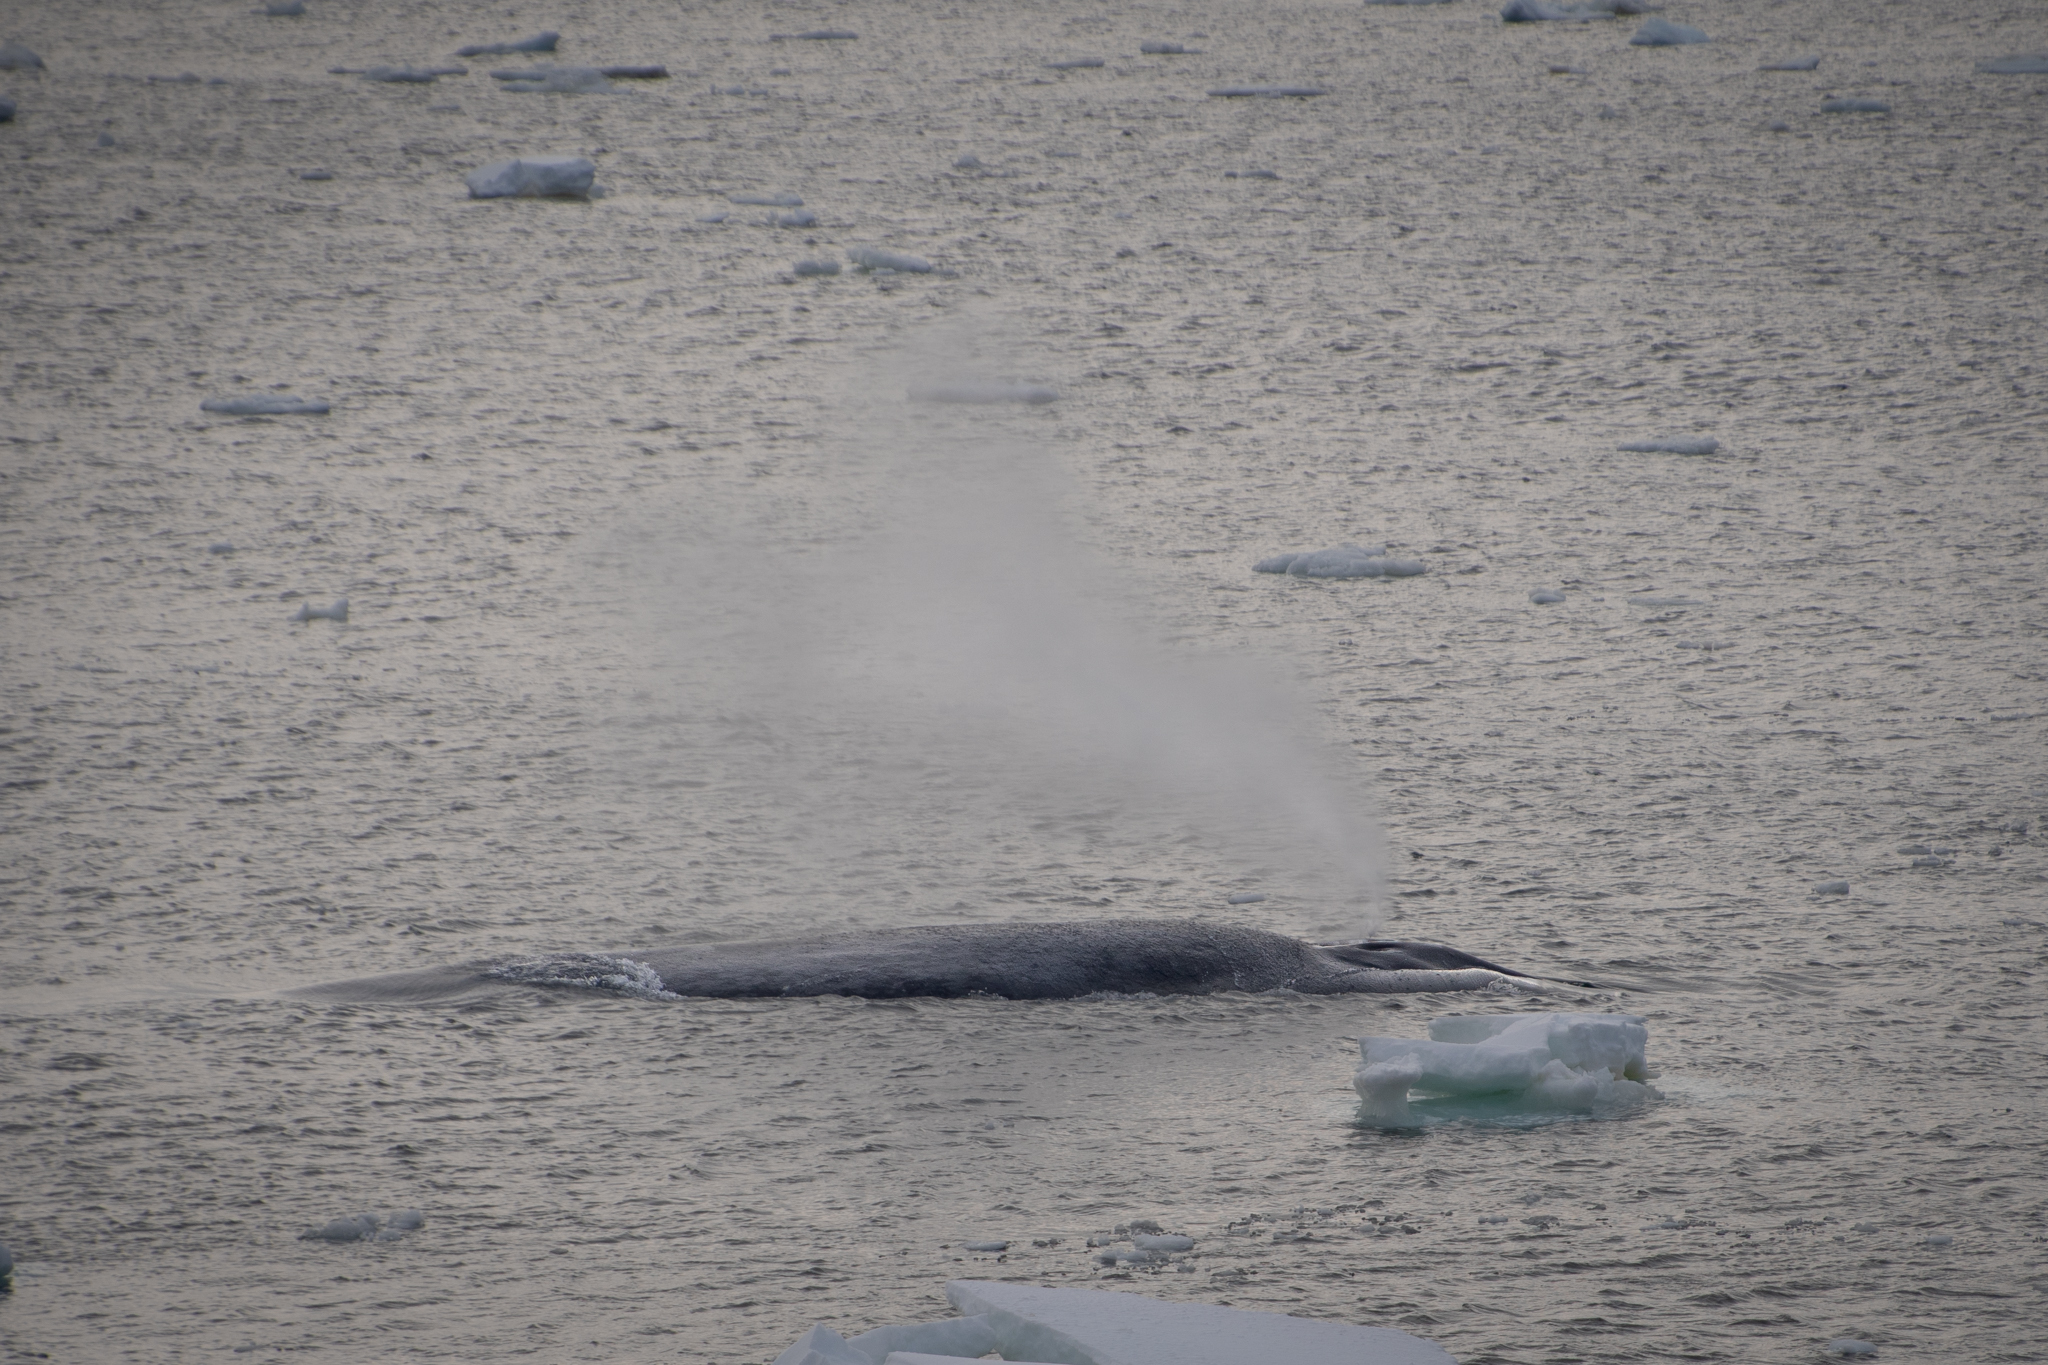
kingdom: Animalia
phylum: Chordata
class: Mammalia
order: Cetacea
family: Balaenopteridae
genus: Balaenoptera
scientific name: Balaenoptera musculus
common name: Blue whale
